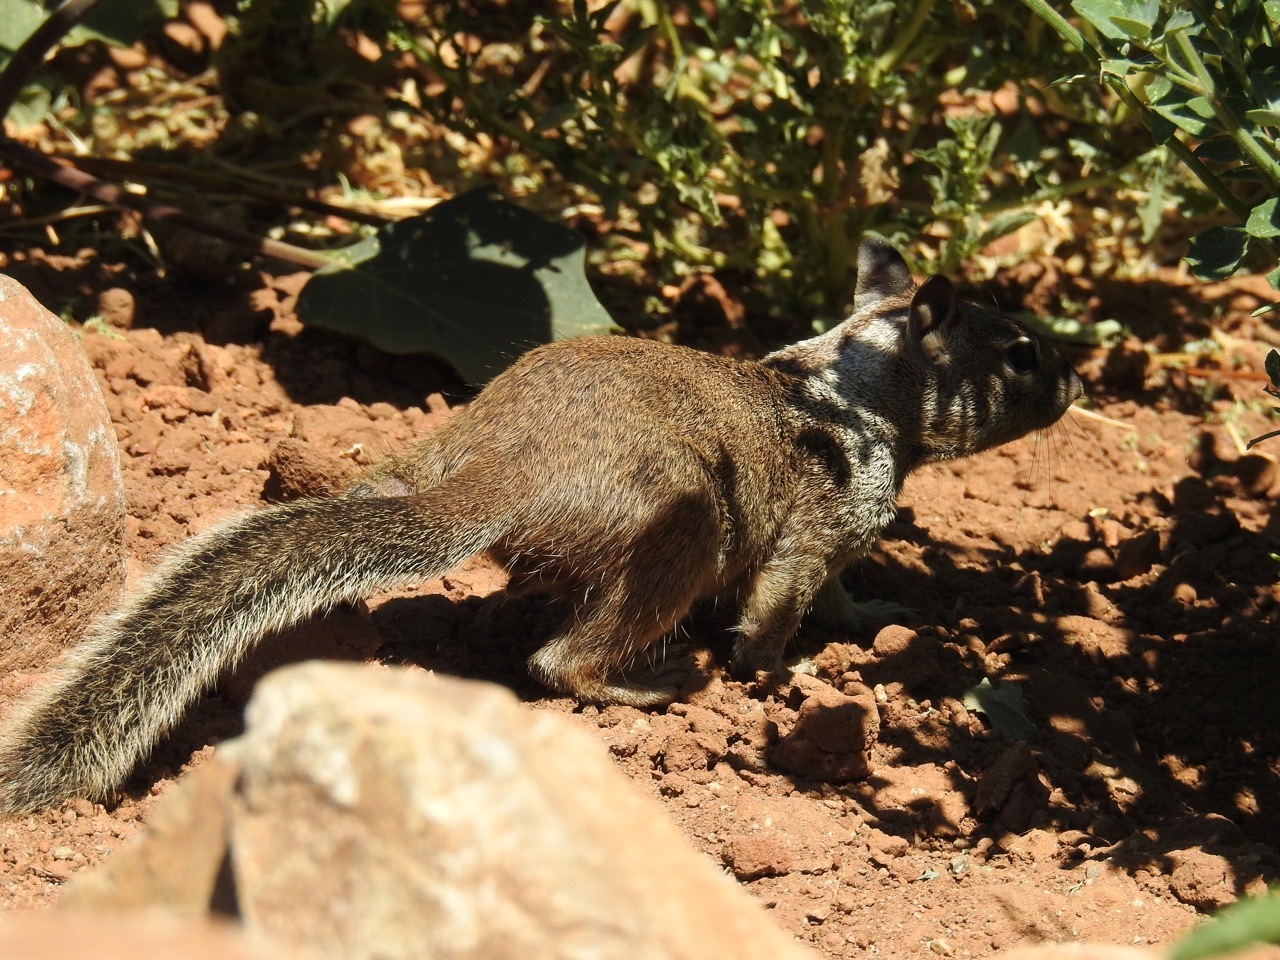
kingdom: Animalia
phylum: Chordata
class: Mammalia
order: Rodentia
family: Sciuridae
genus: Otospermophilus
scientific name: Otospermophilus beecheyi
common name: California ground squirrel
